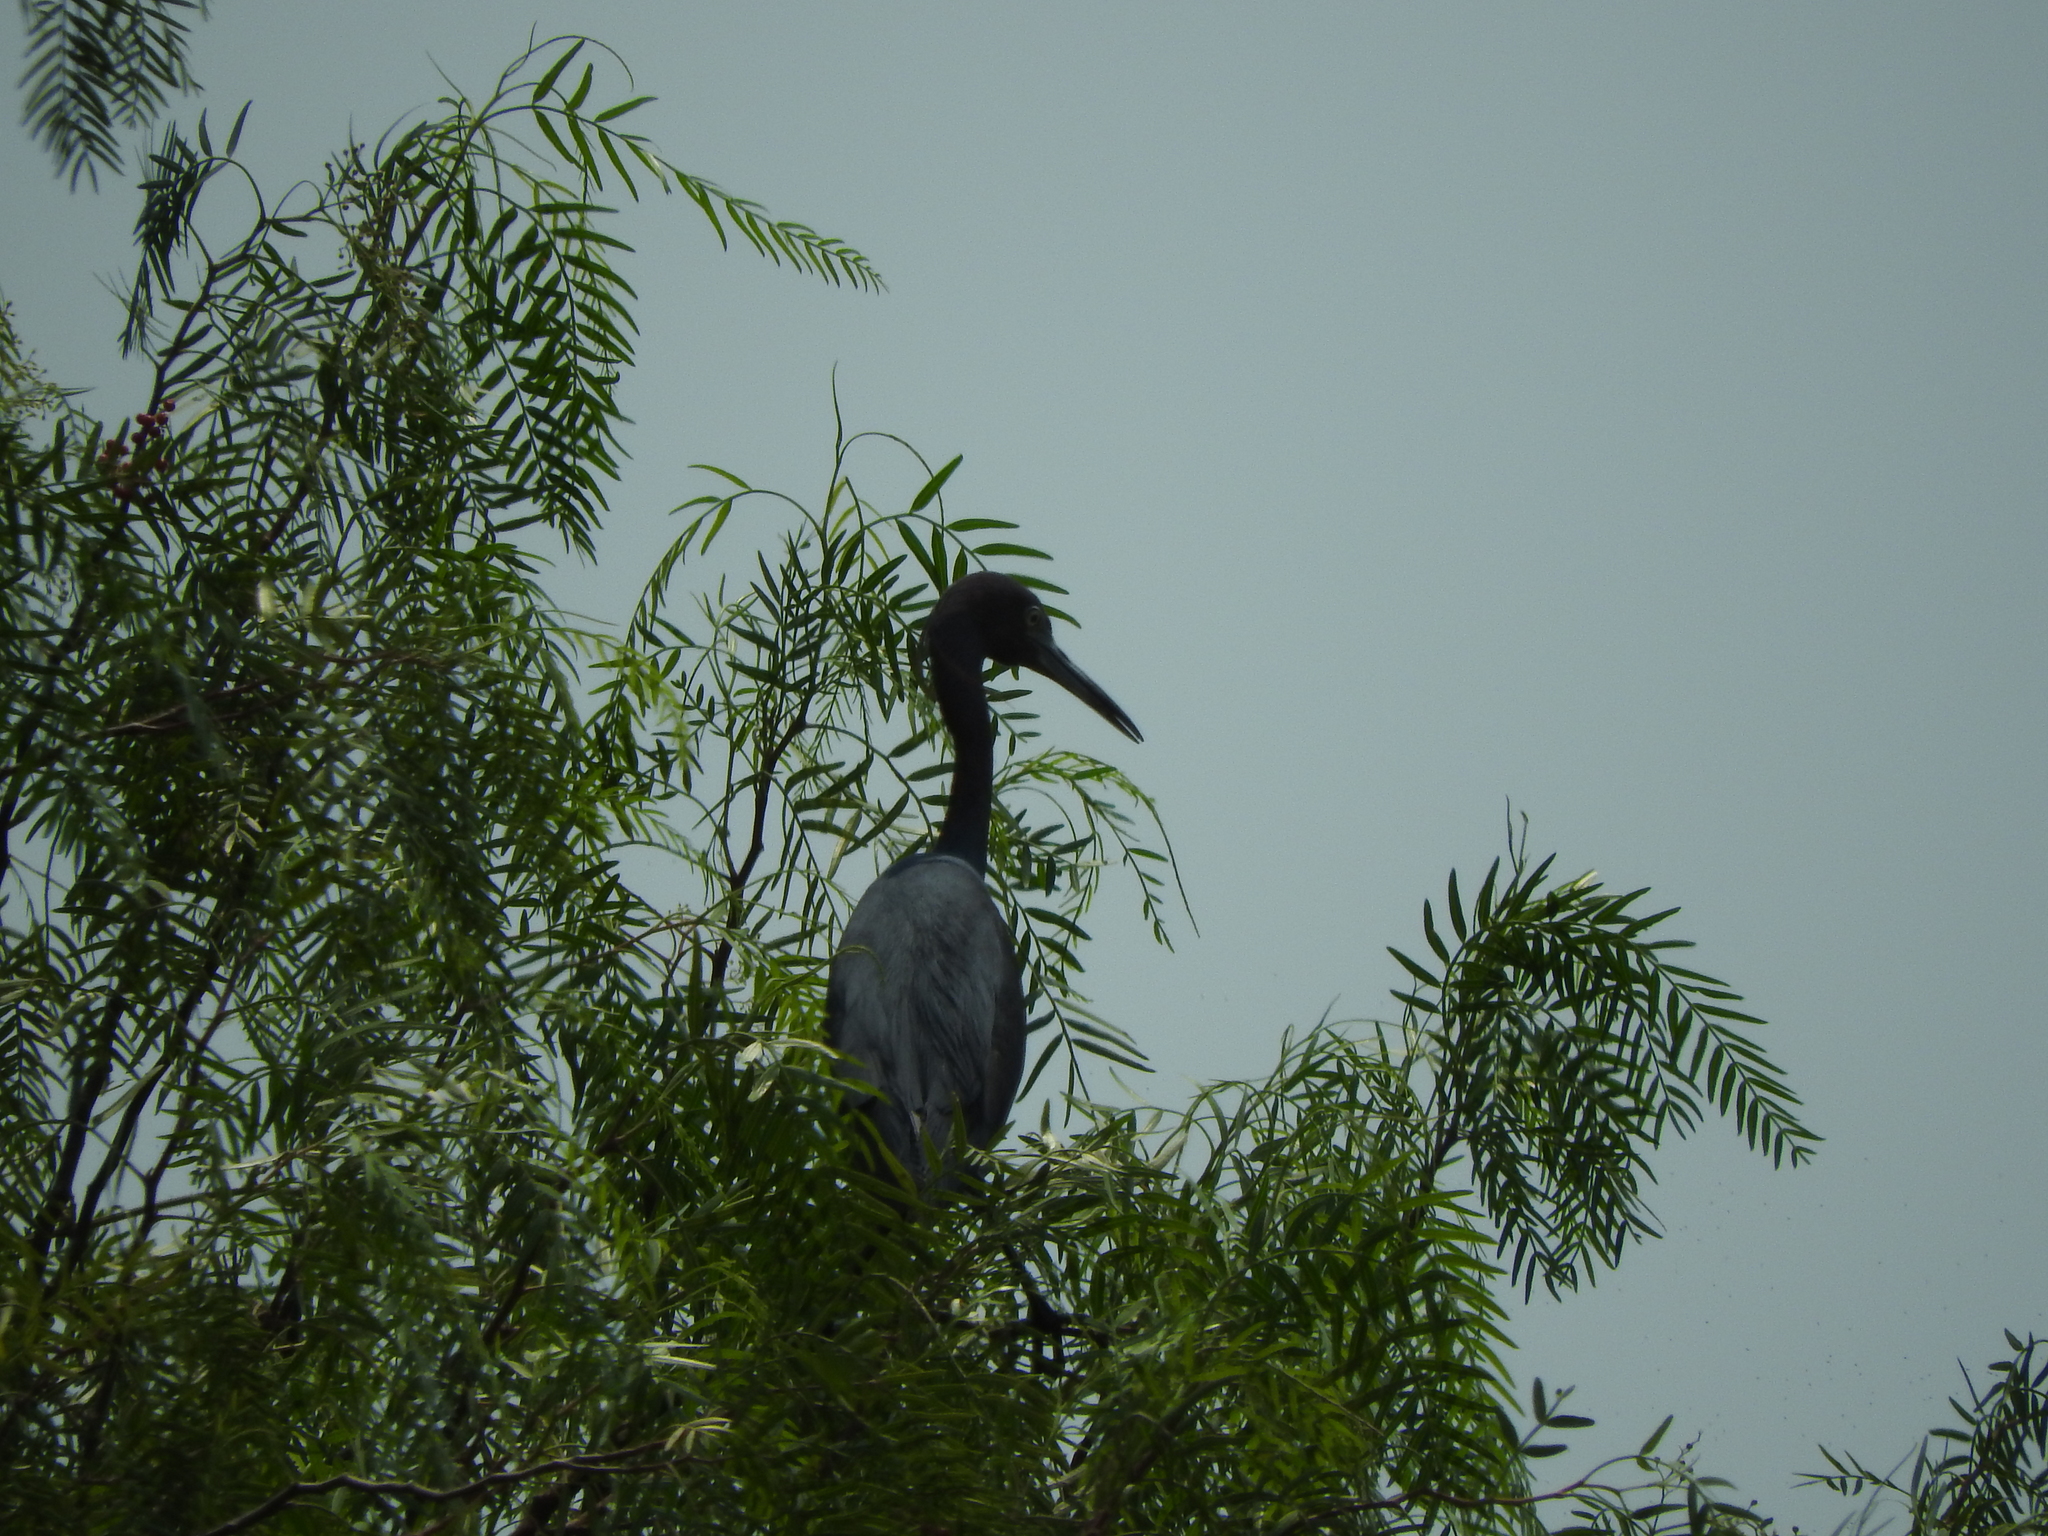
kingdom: Animalia
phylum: Chordata
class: Aves
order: Pelecaniformes
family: Ardeidae
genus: Egretta
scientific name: Egretta caerulea
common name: Little blue heron
